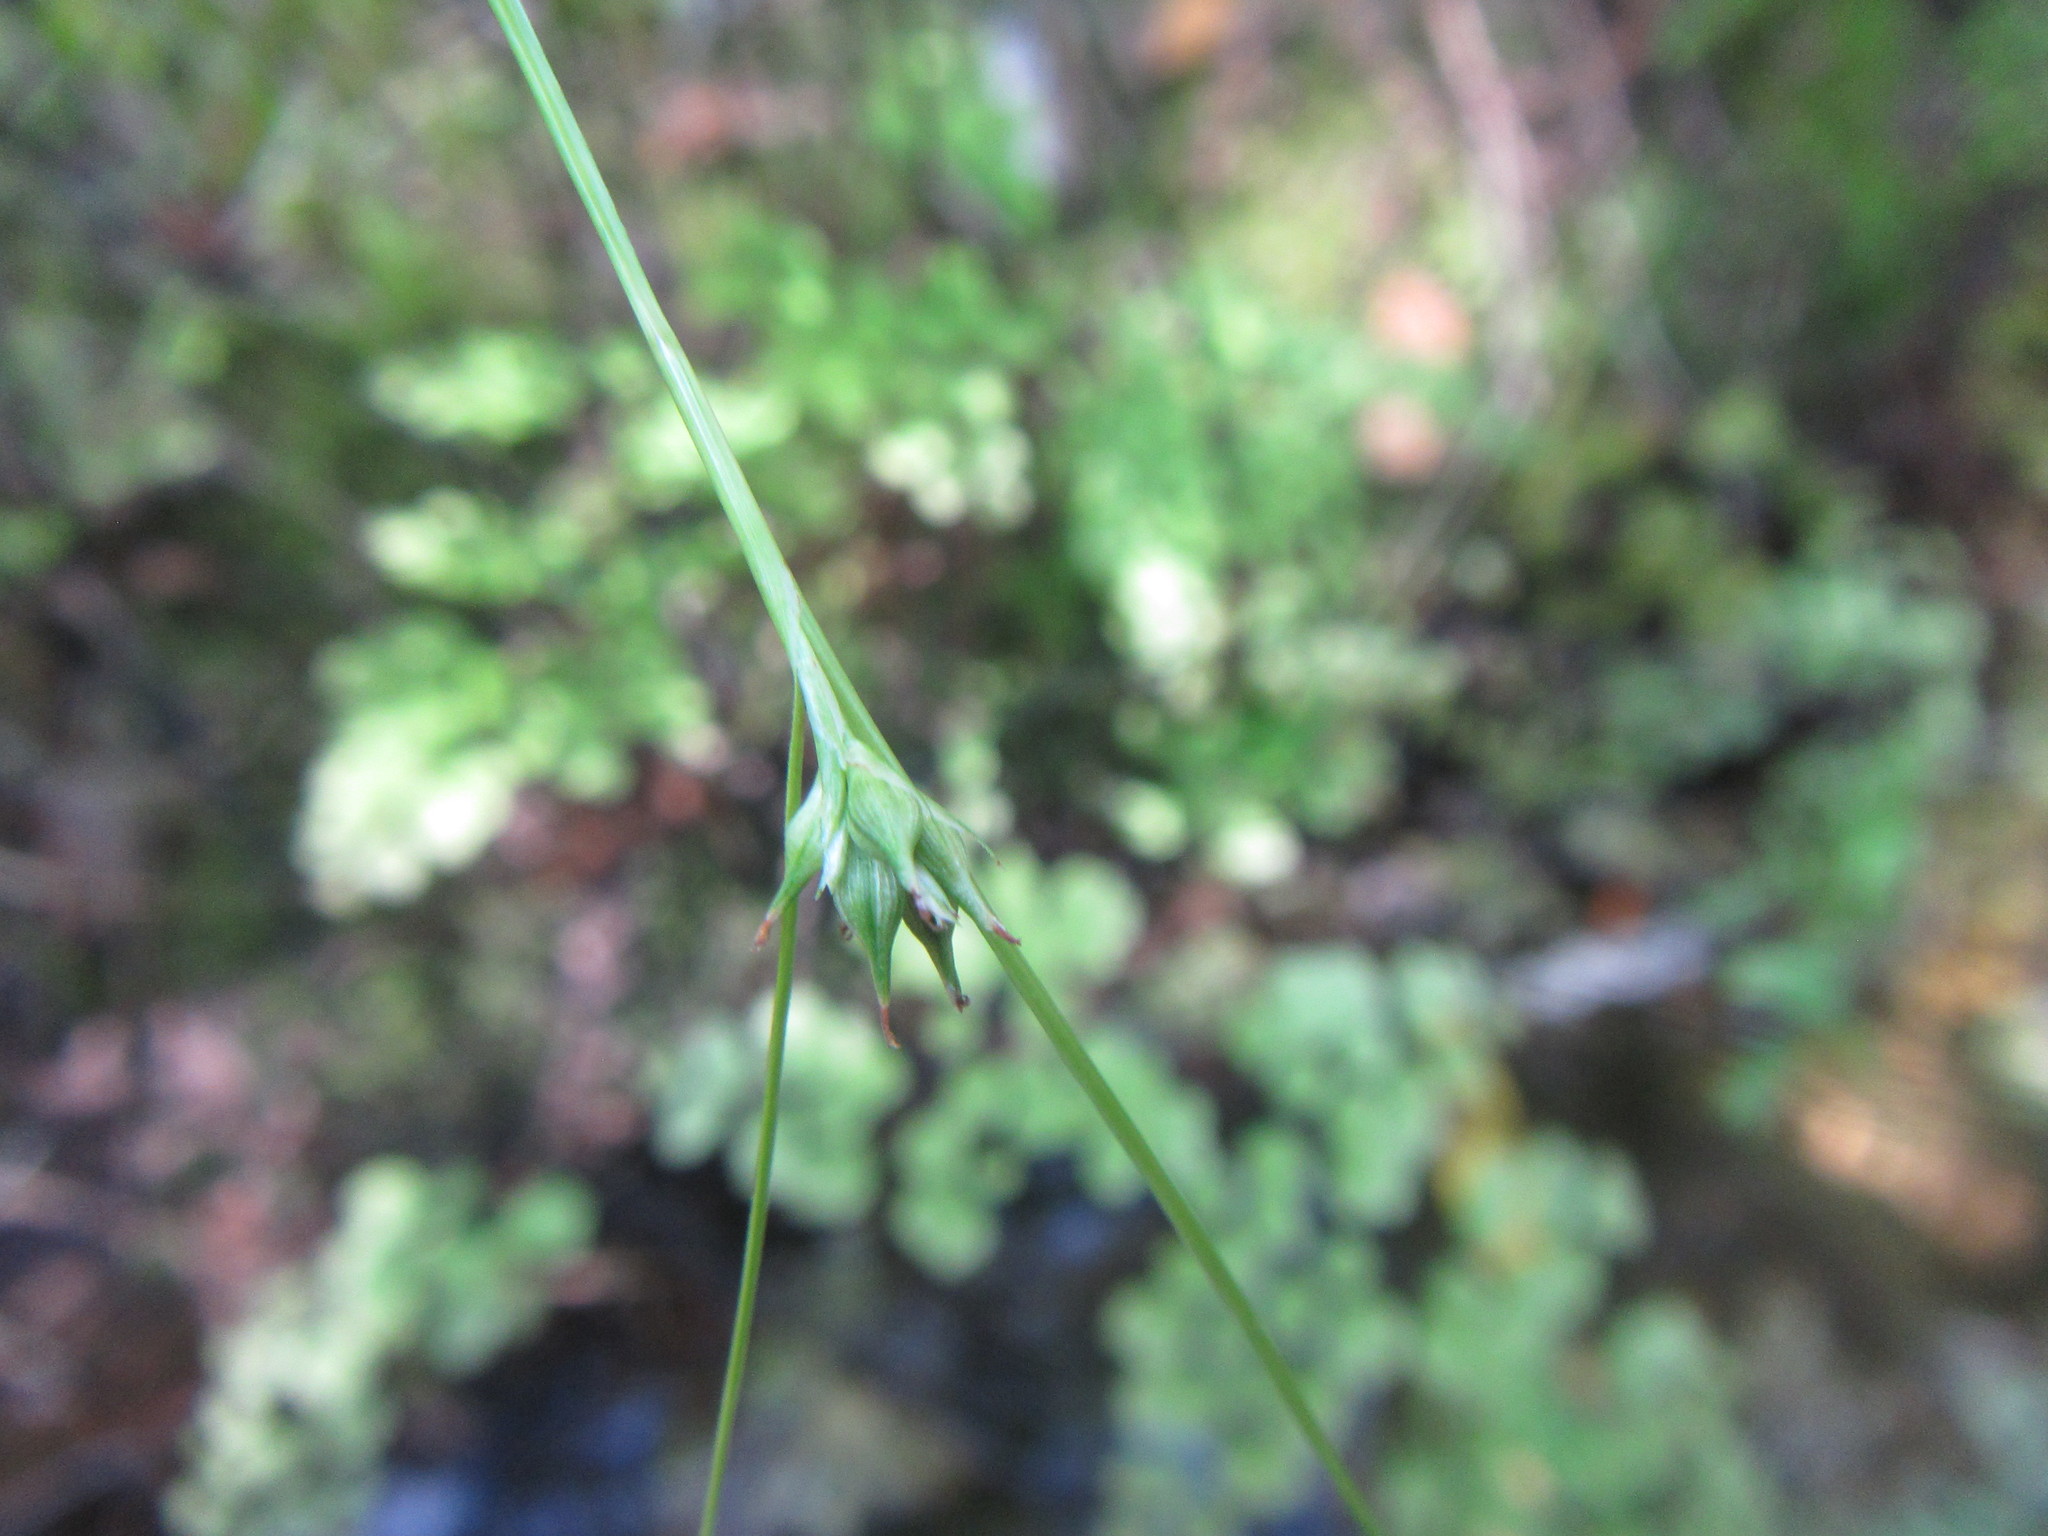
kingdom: Plantae
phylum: Tracheophyta
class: Liliopsida
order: Poales
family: Cyperaceae
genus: Carex
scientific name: Carex uhligii
